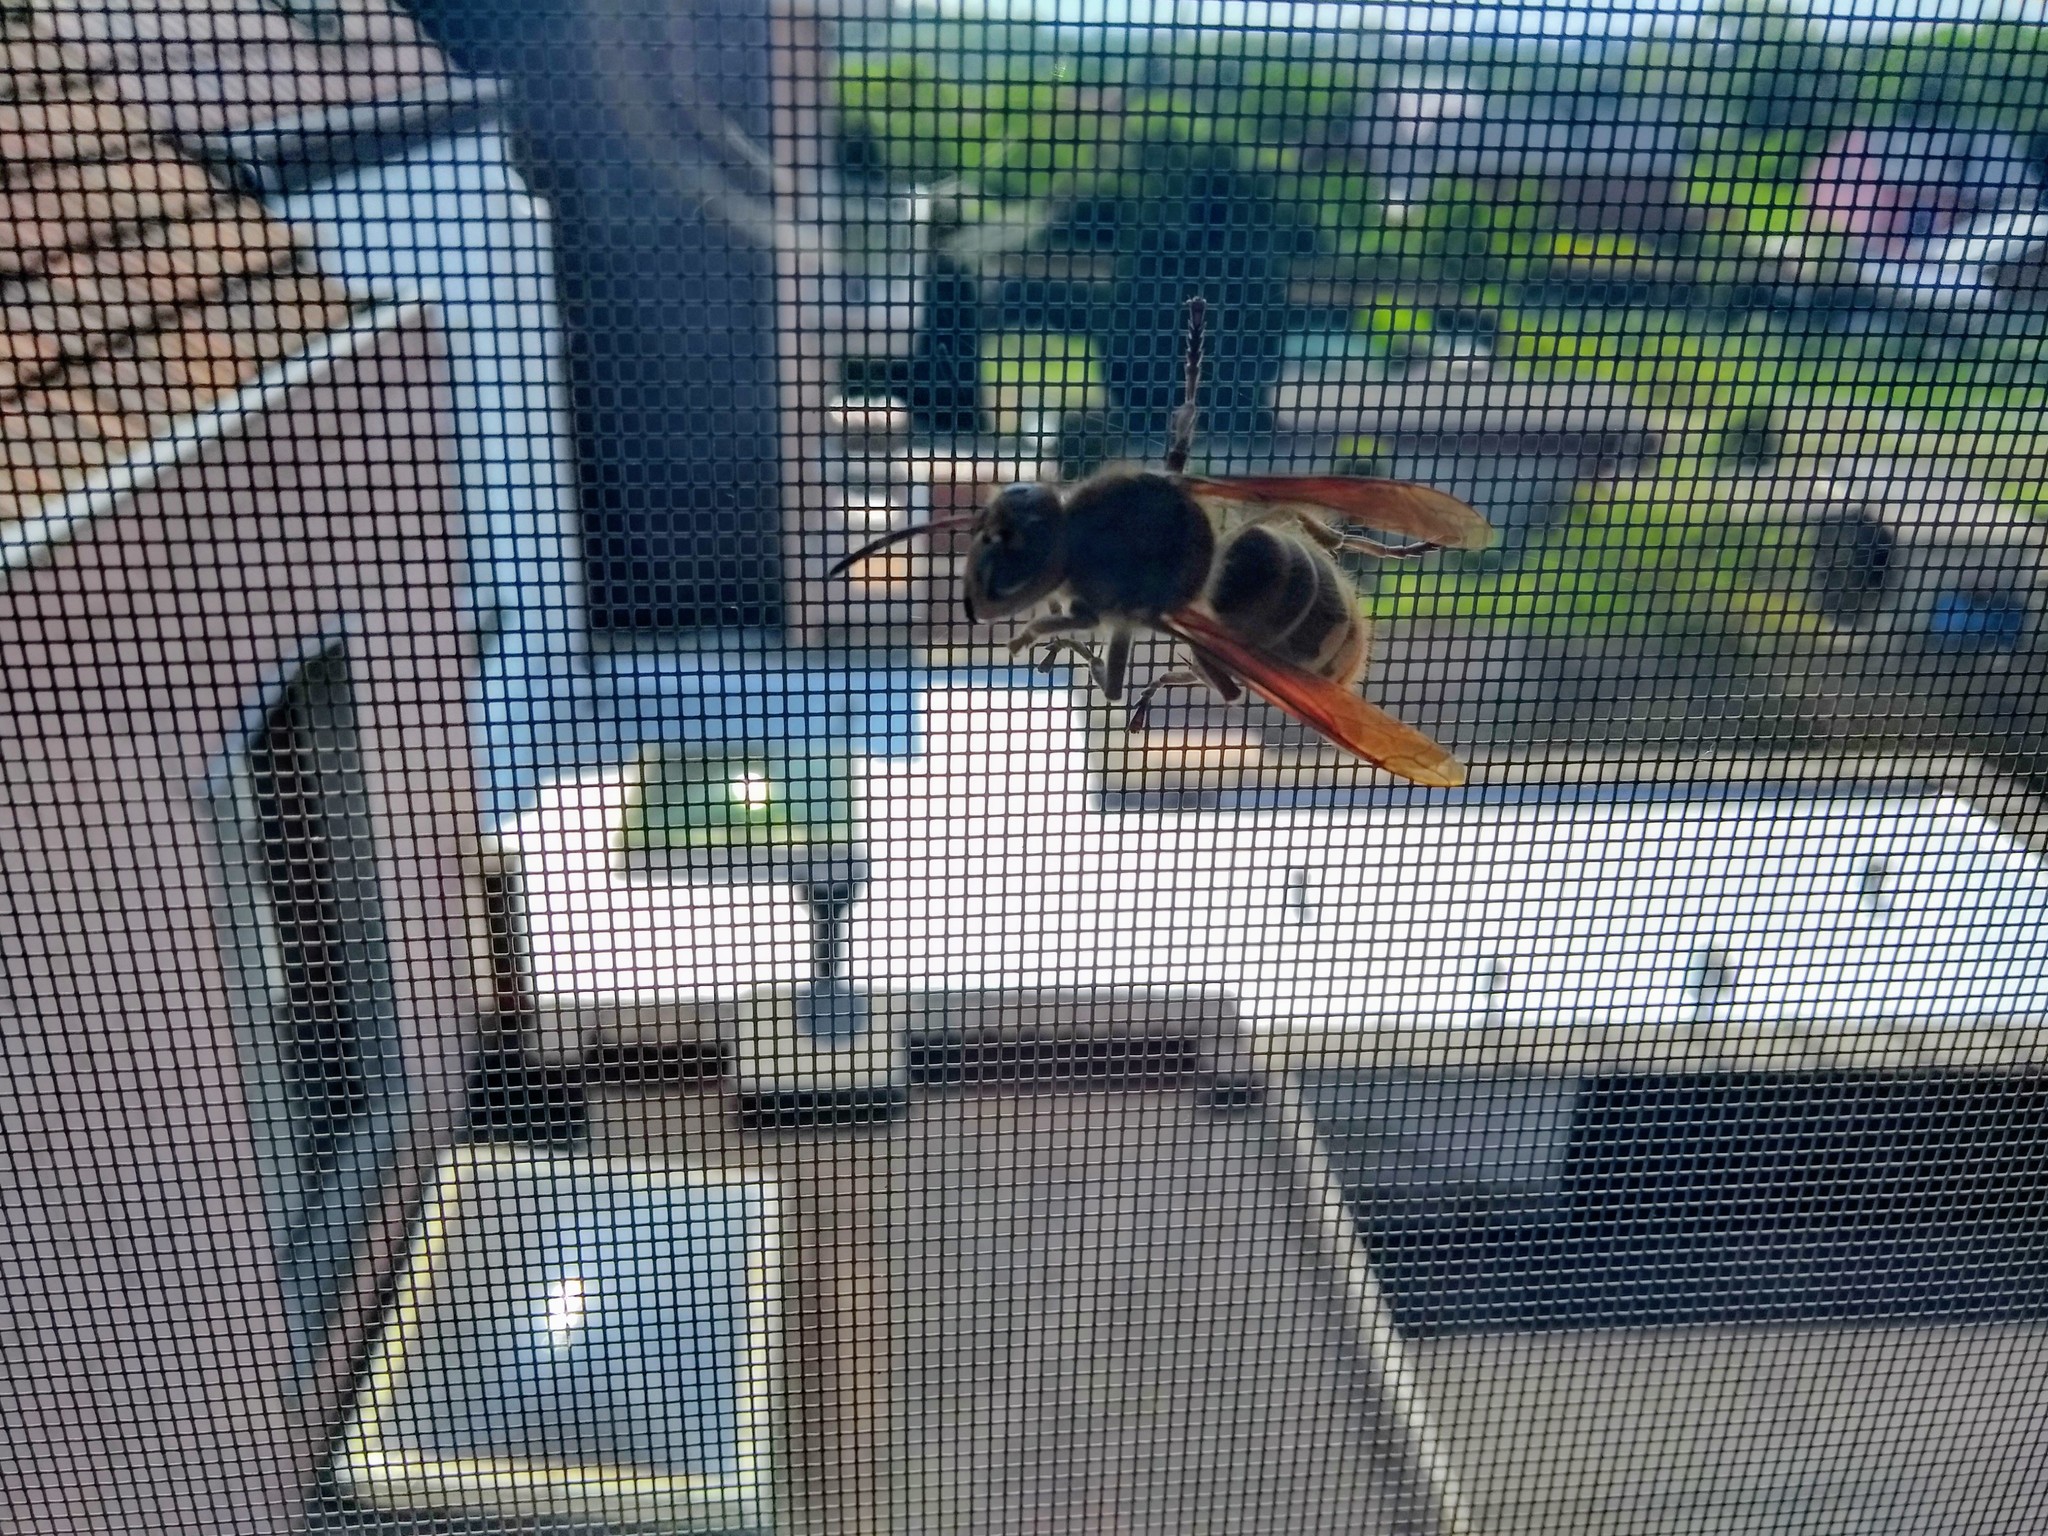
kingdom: Animalia
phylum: Arthropoda
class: Insecta
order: Hymenoptera
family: Vespidae
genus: Vespa
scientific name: Vespa crabro
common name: Hornet
